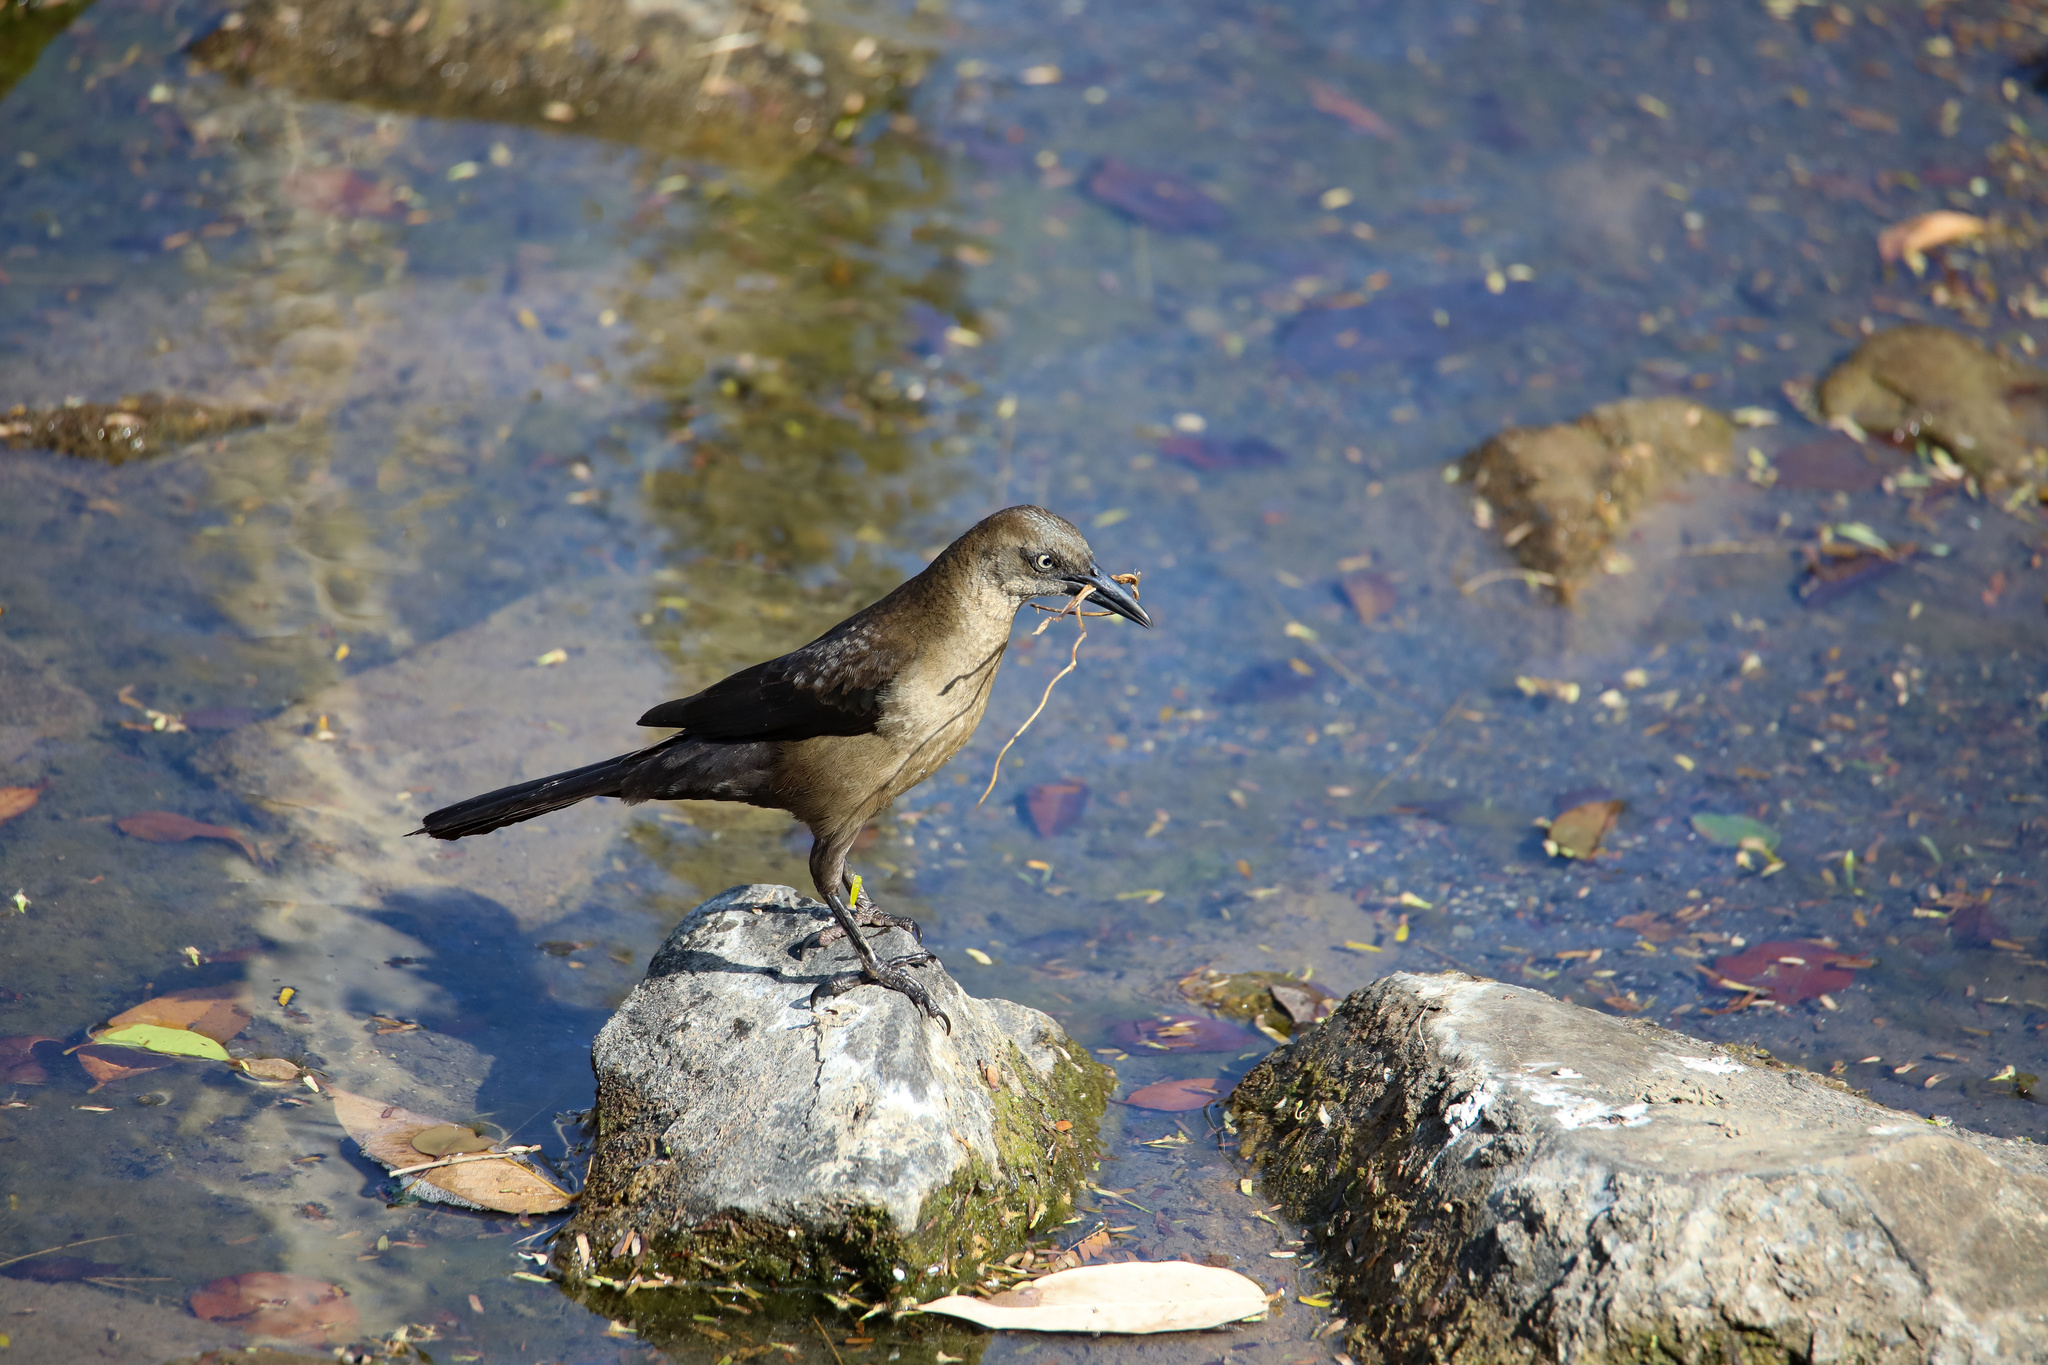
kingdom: Animalia
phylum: Chordata
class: Aves
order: Passeriformes
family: Icteridae
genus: Quiscalus
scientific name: Quiscalus mexicanus
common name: Great-tailed grackle
